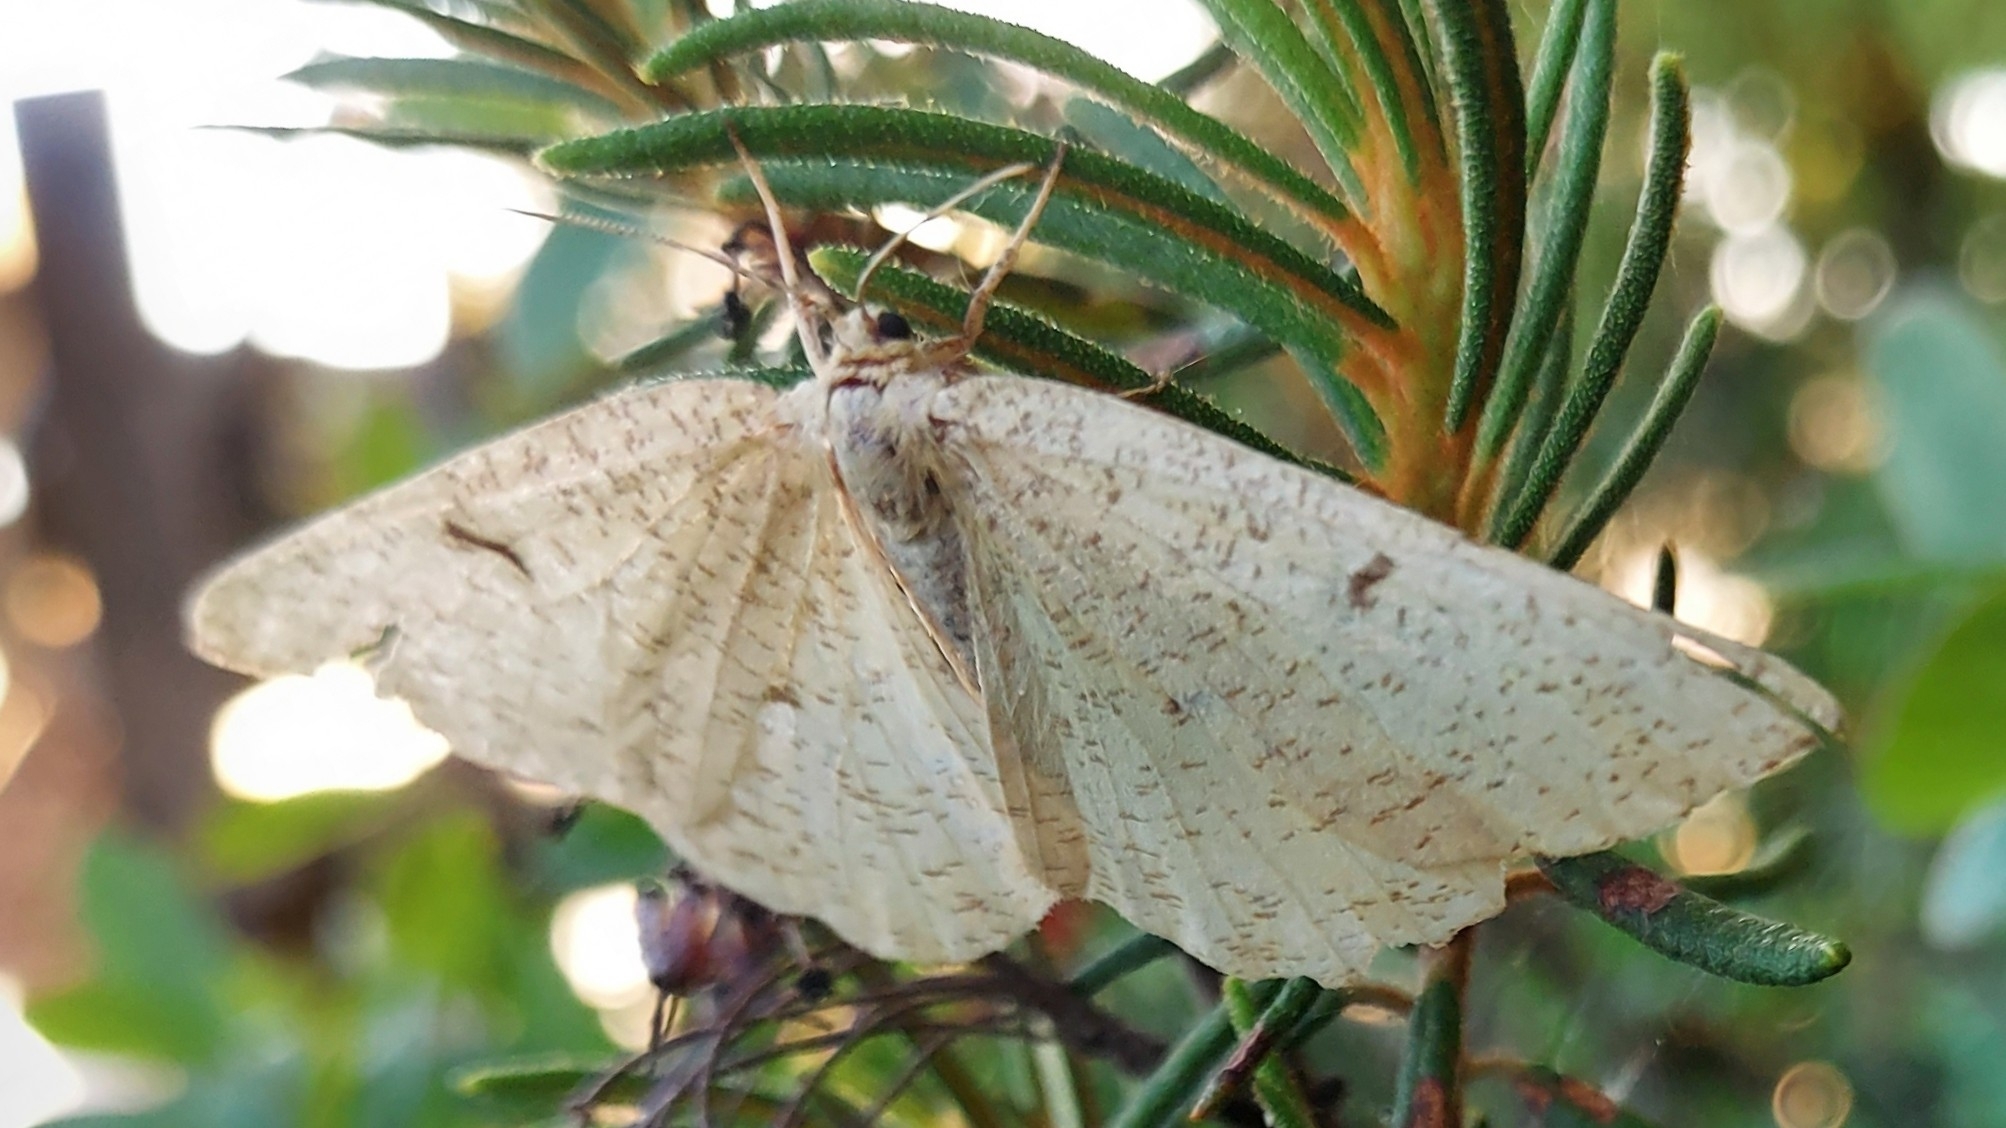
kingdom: Animalia
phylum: Arthropoda
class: Insecta
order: Lepidoptera
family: Geometridae
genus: Angerona
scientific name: Angerona prunaria
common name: Orange moth
